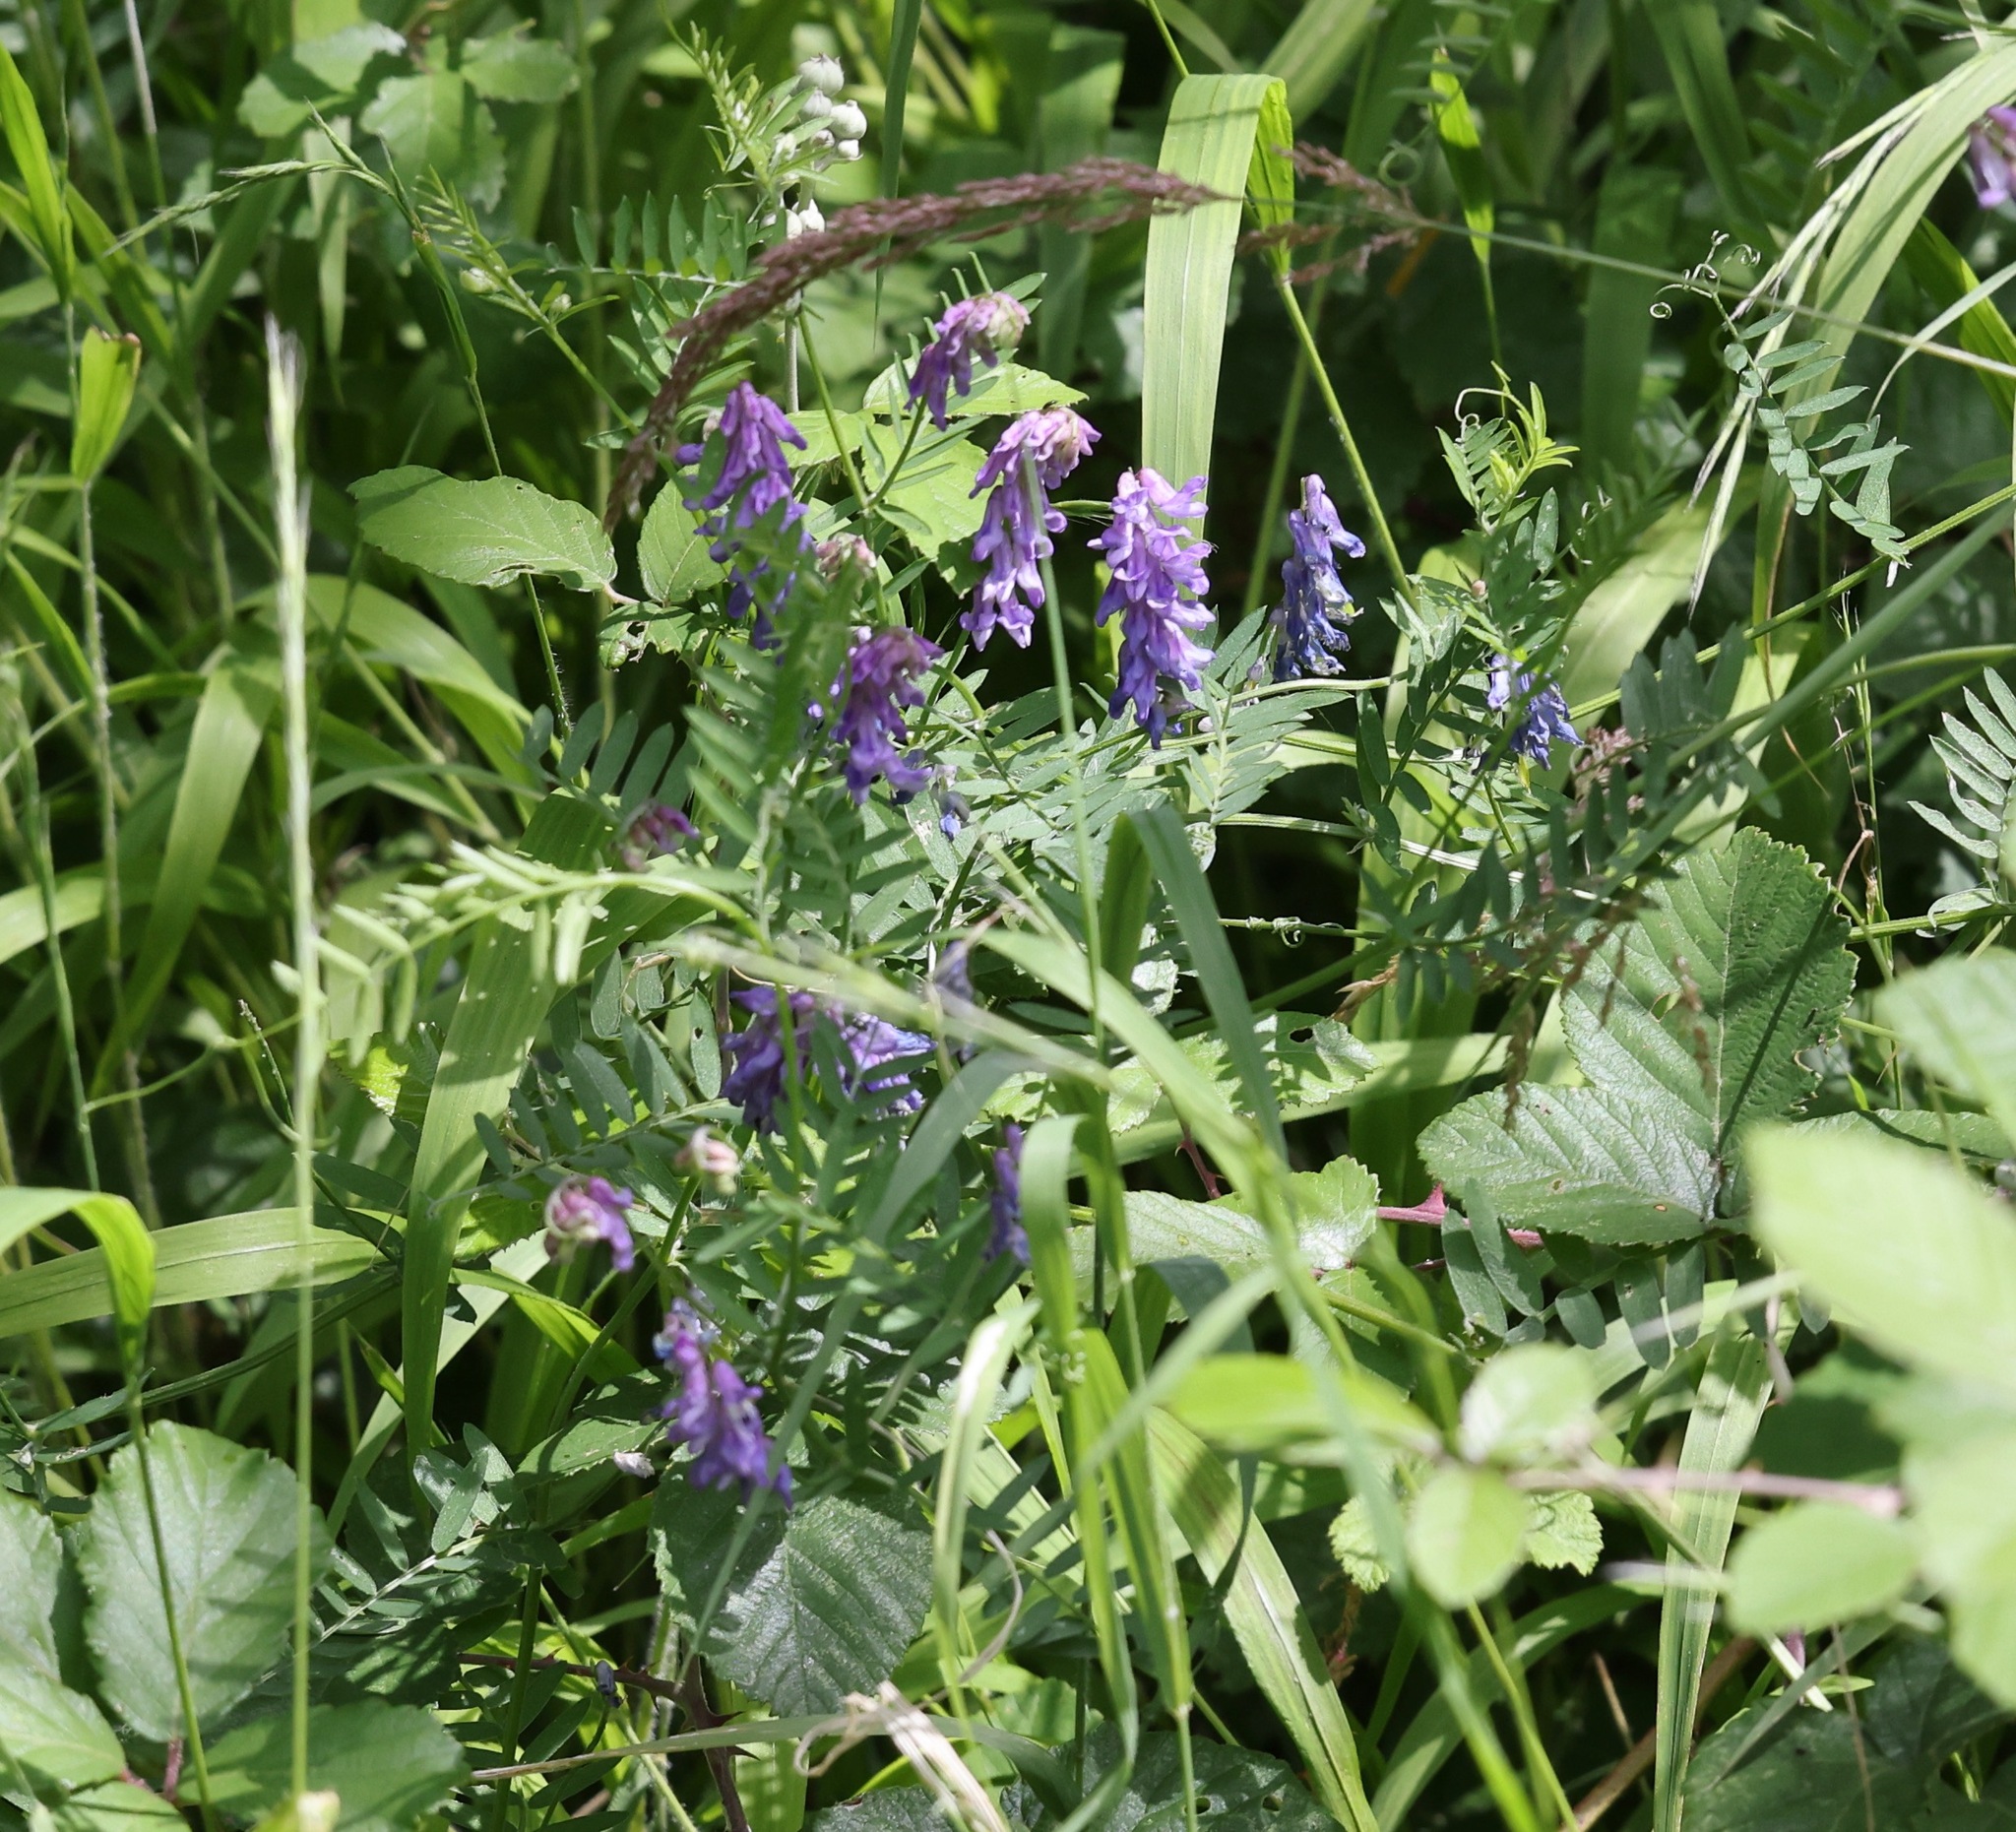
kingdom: Plantae
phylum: Tracheophyta
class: Magnoliopsida
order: Fabales
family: Fabaceae
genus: Vicia
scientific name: Vicia cracca
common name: Bird vetch
